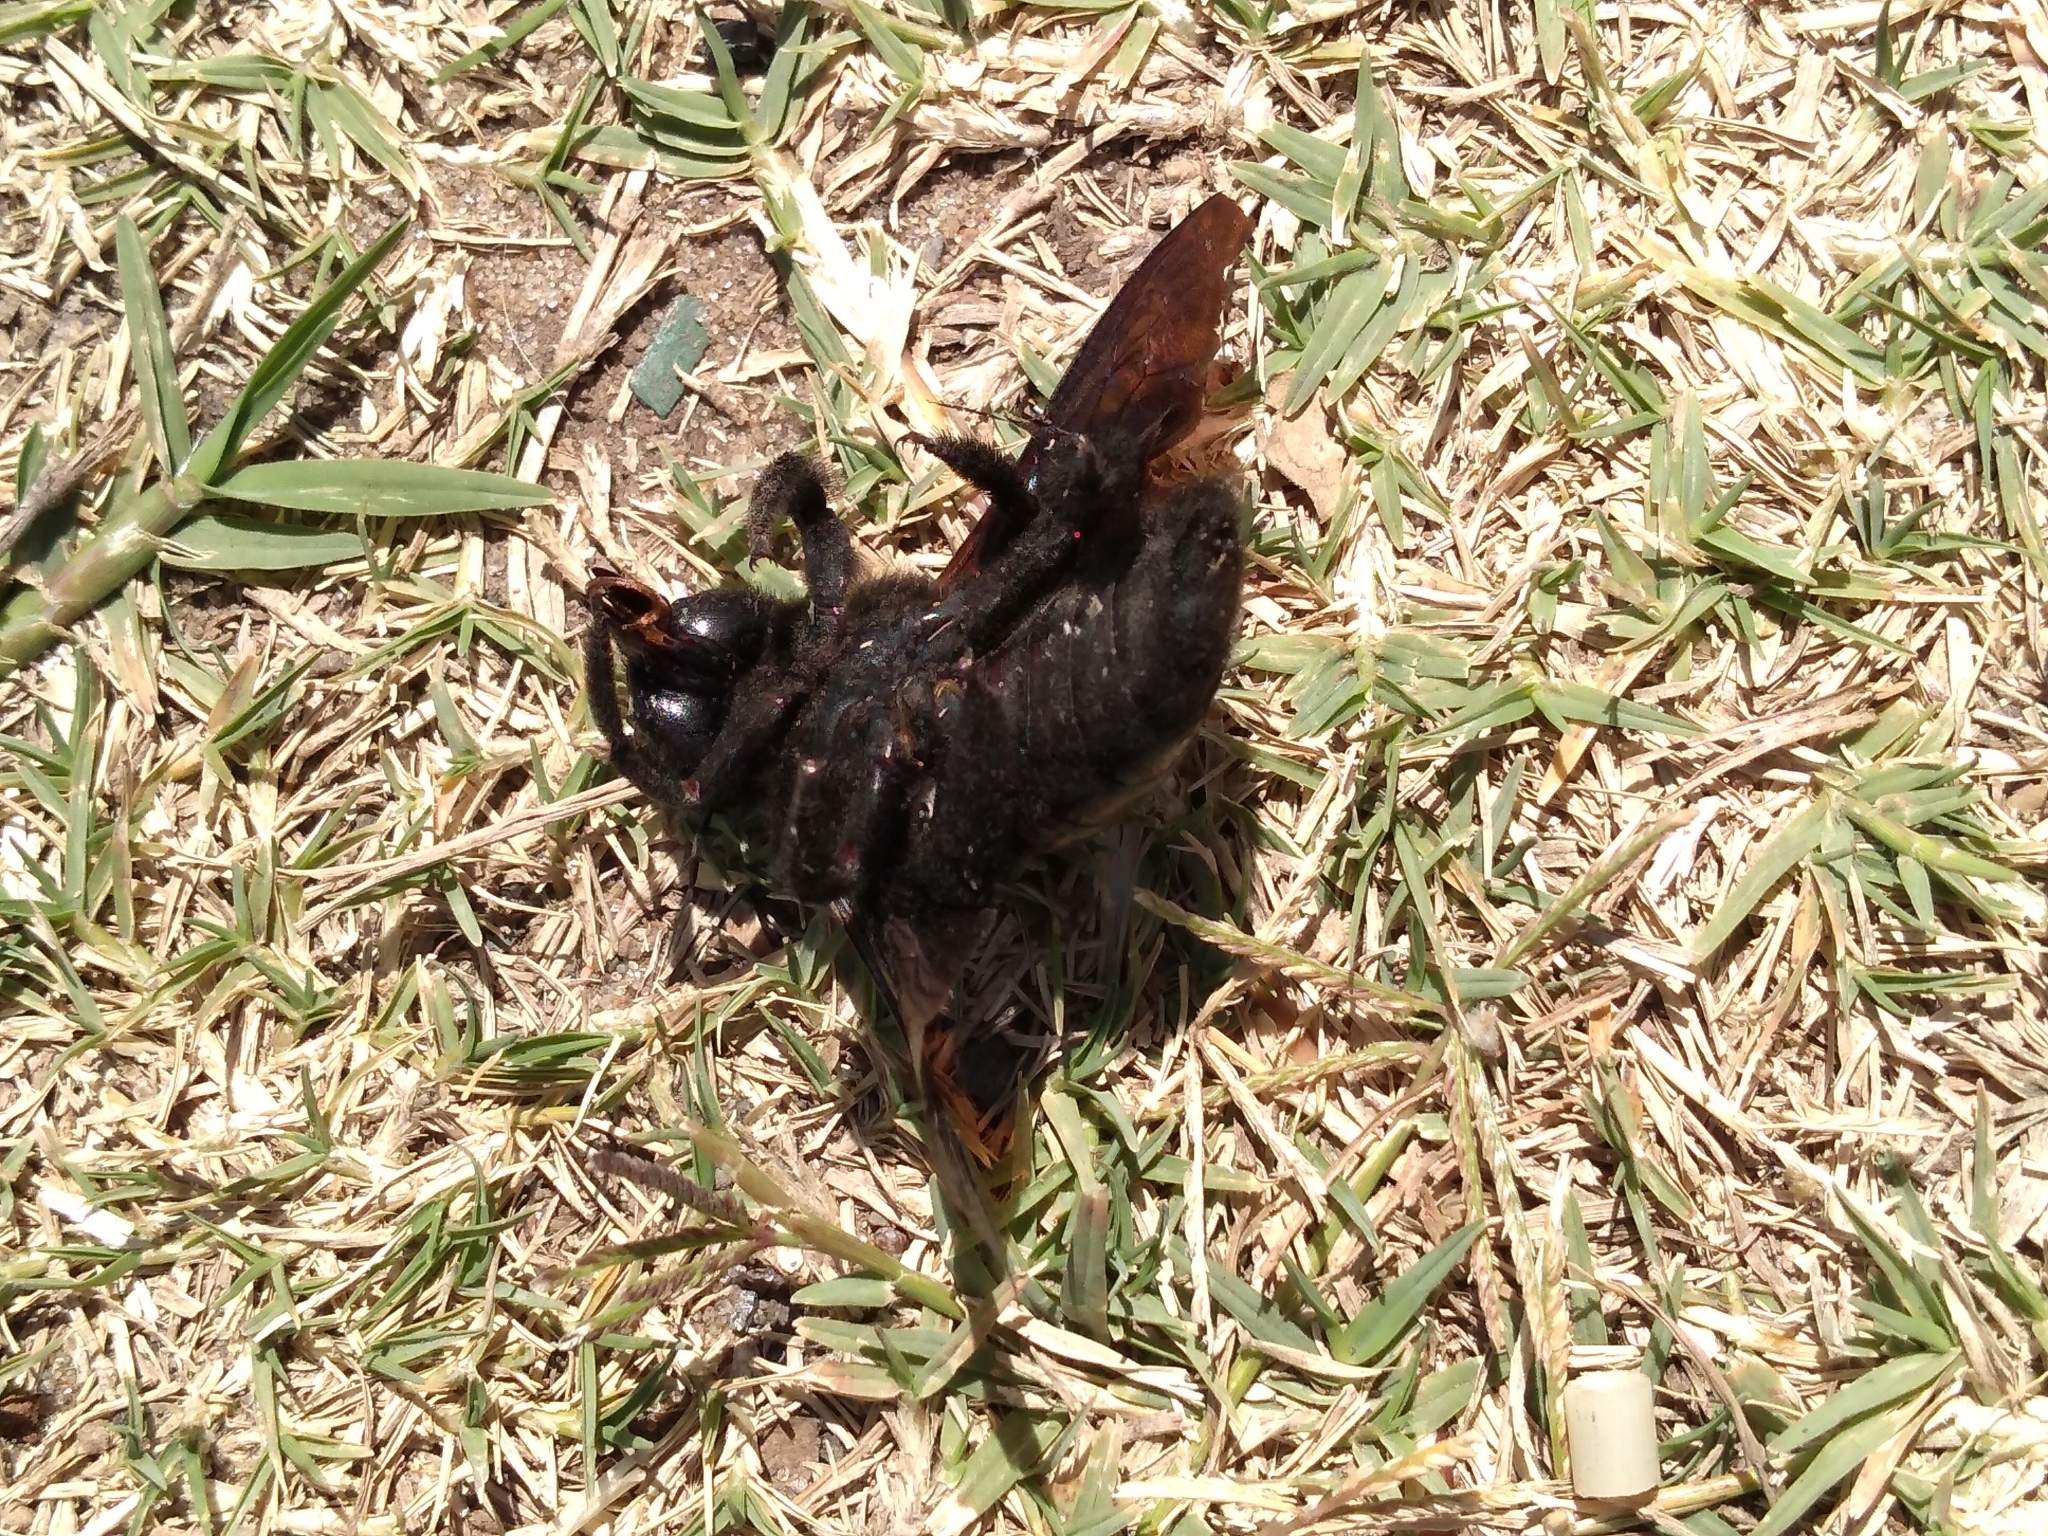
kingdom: Animalia
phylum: Arthropoda
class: Insecta
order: Hymenoptera
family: Apidae
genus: Xylocopa
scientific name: Xylocopa frontalis
